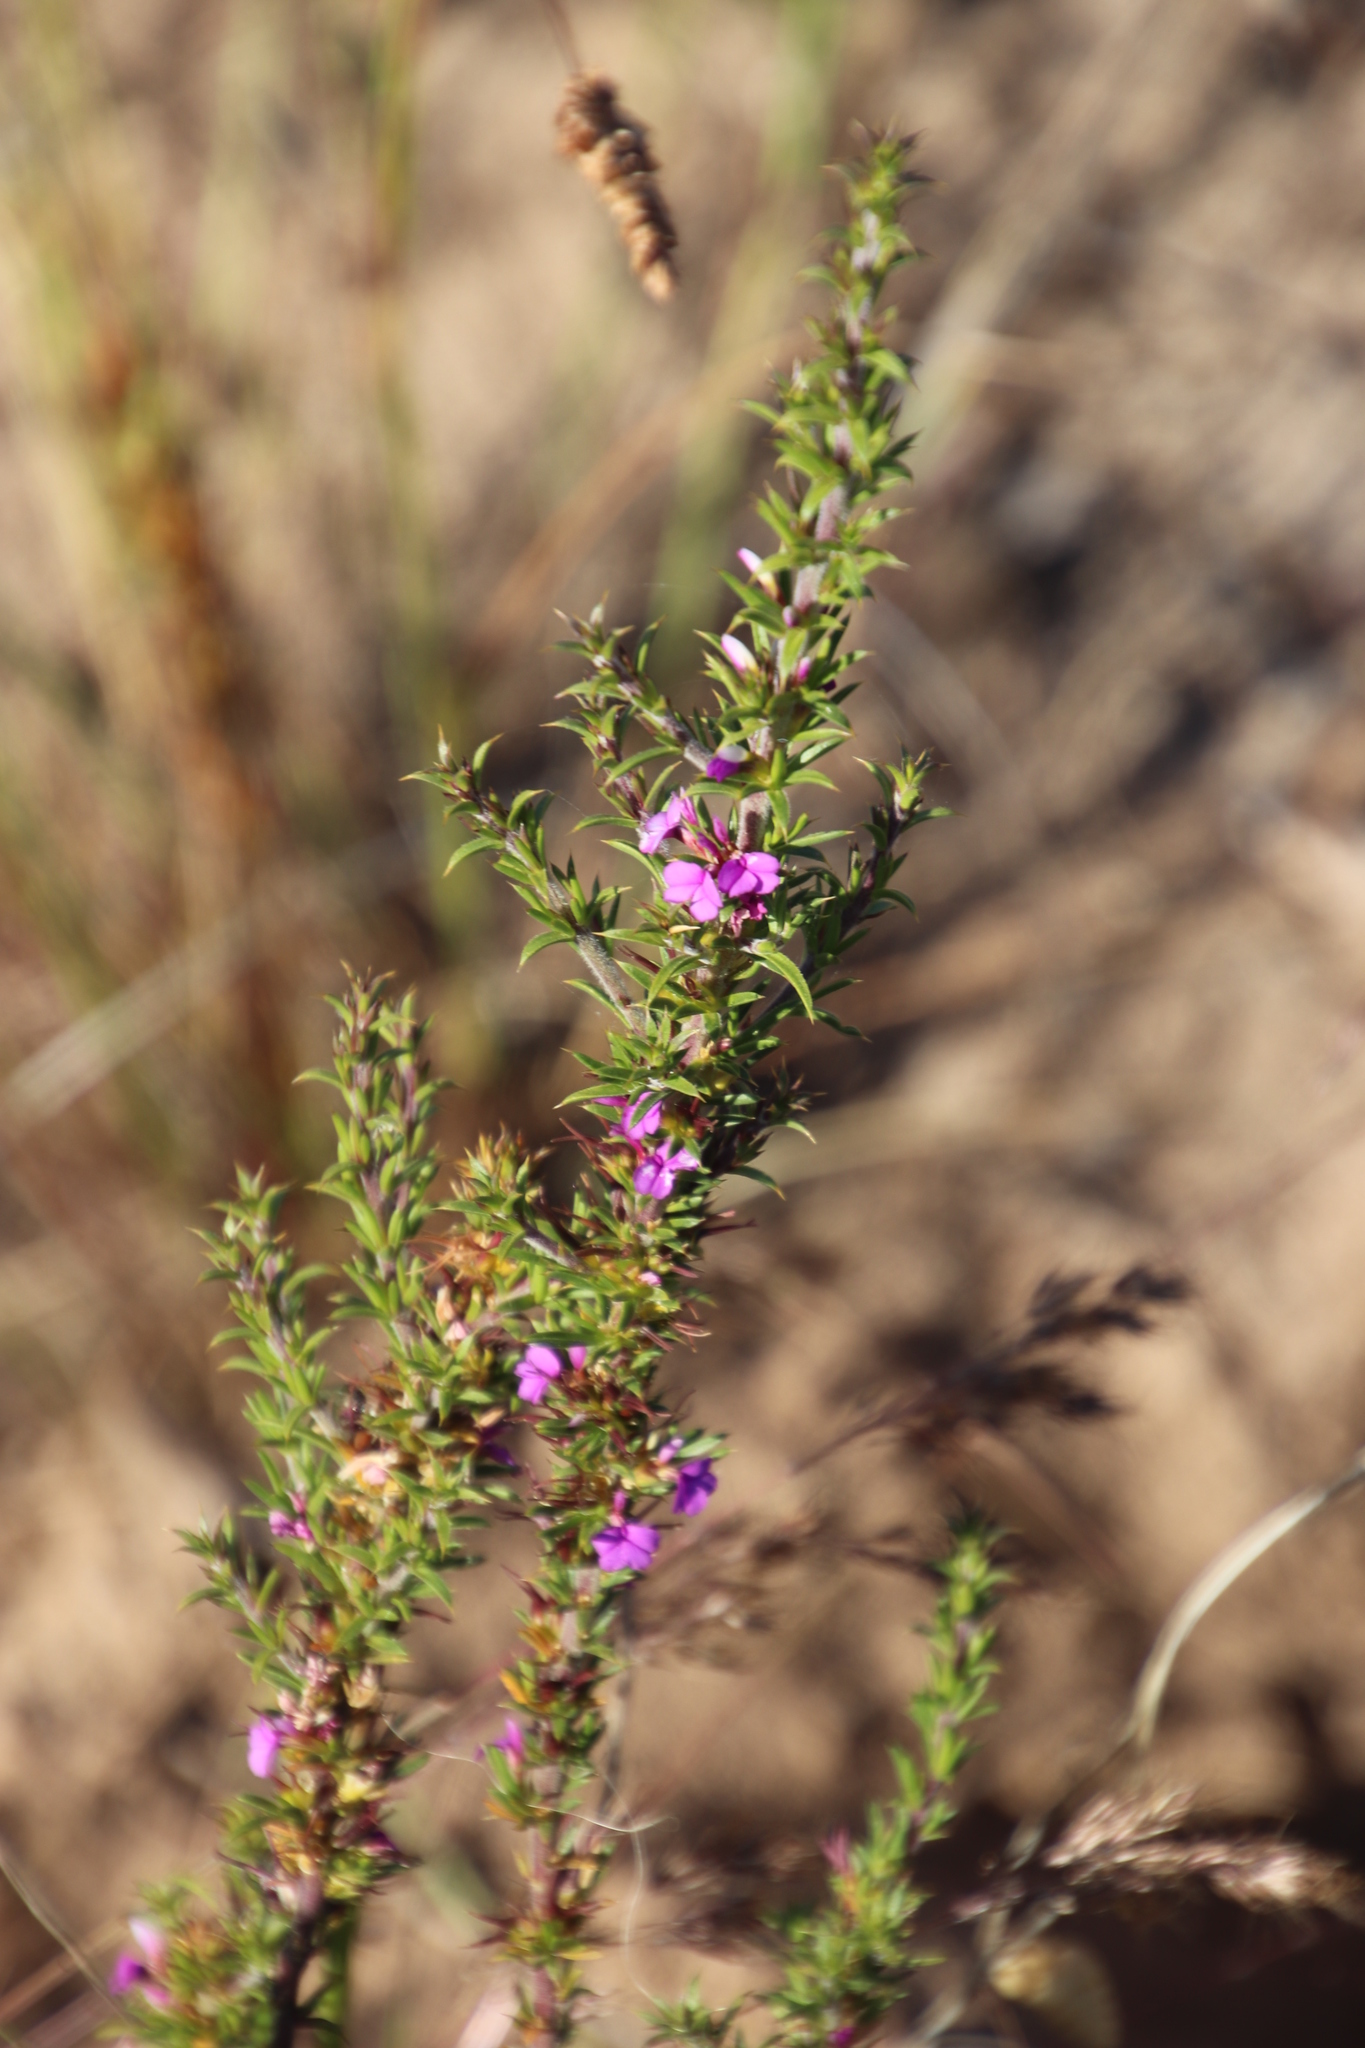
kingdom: Plantae
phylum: Tracheophyta
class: Magnoliopsida
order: Fabales
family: Polygalaceae
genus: Muraltia
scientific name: Muraltia heisteria
